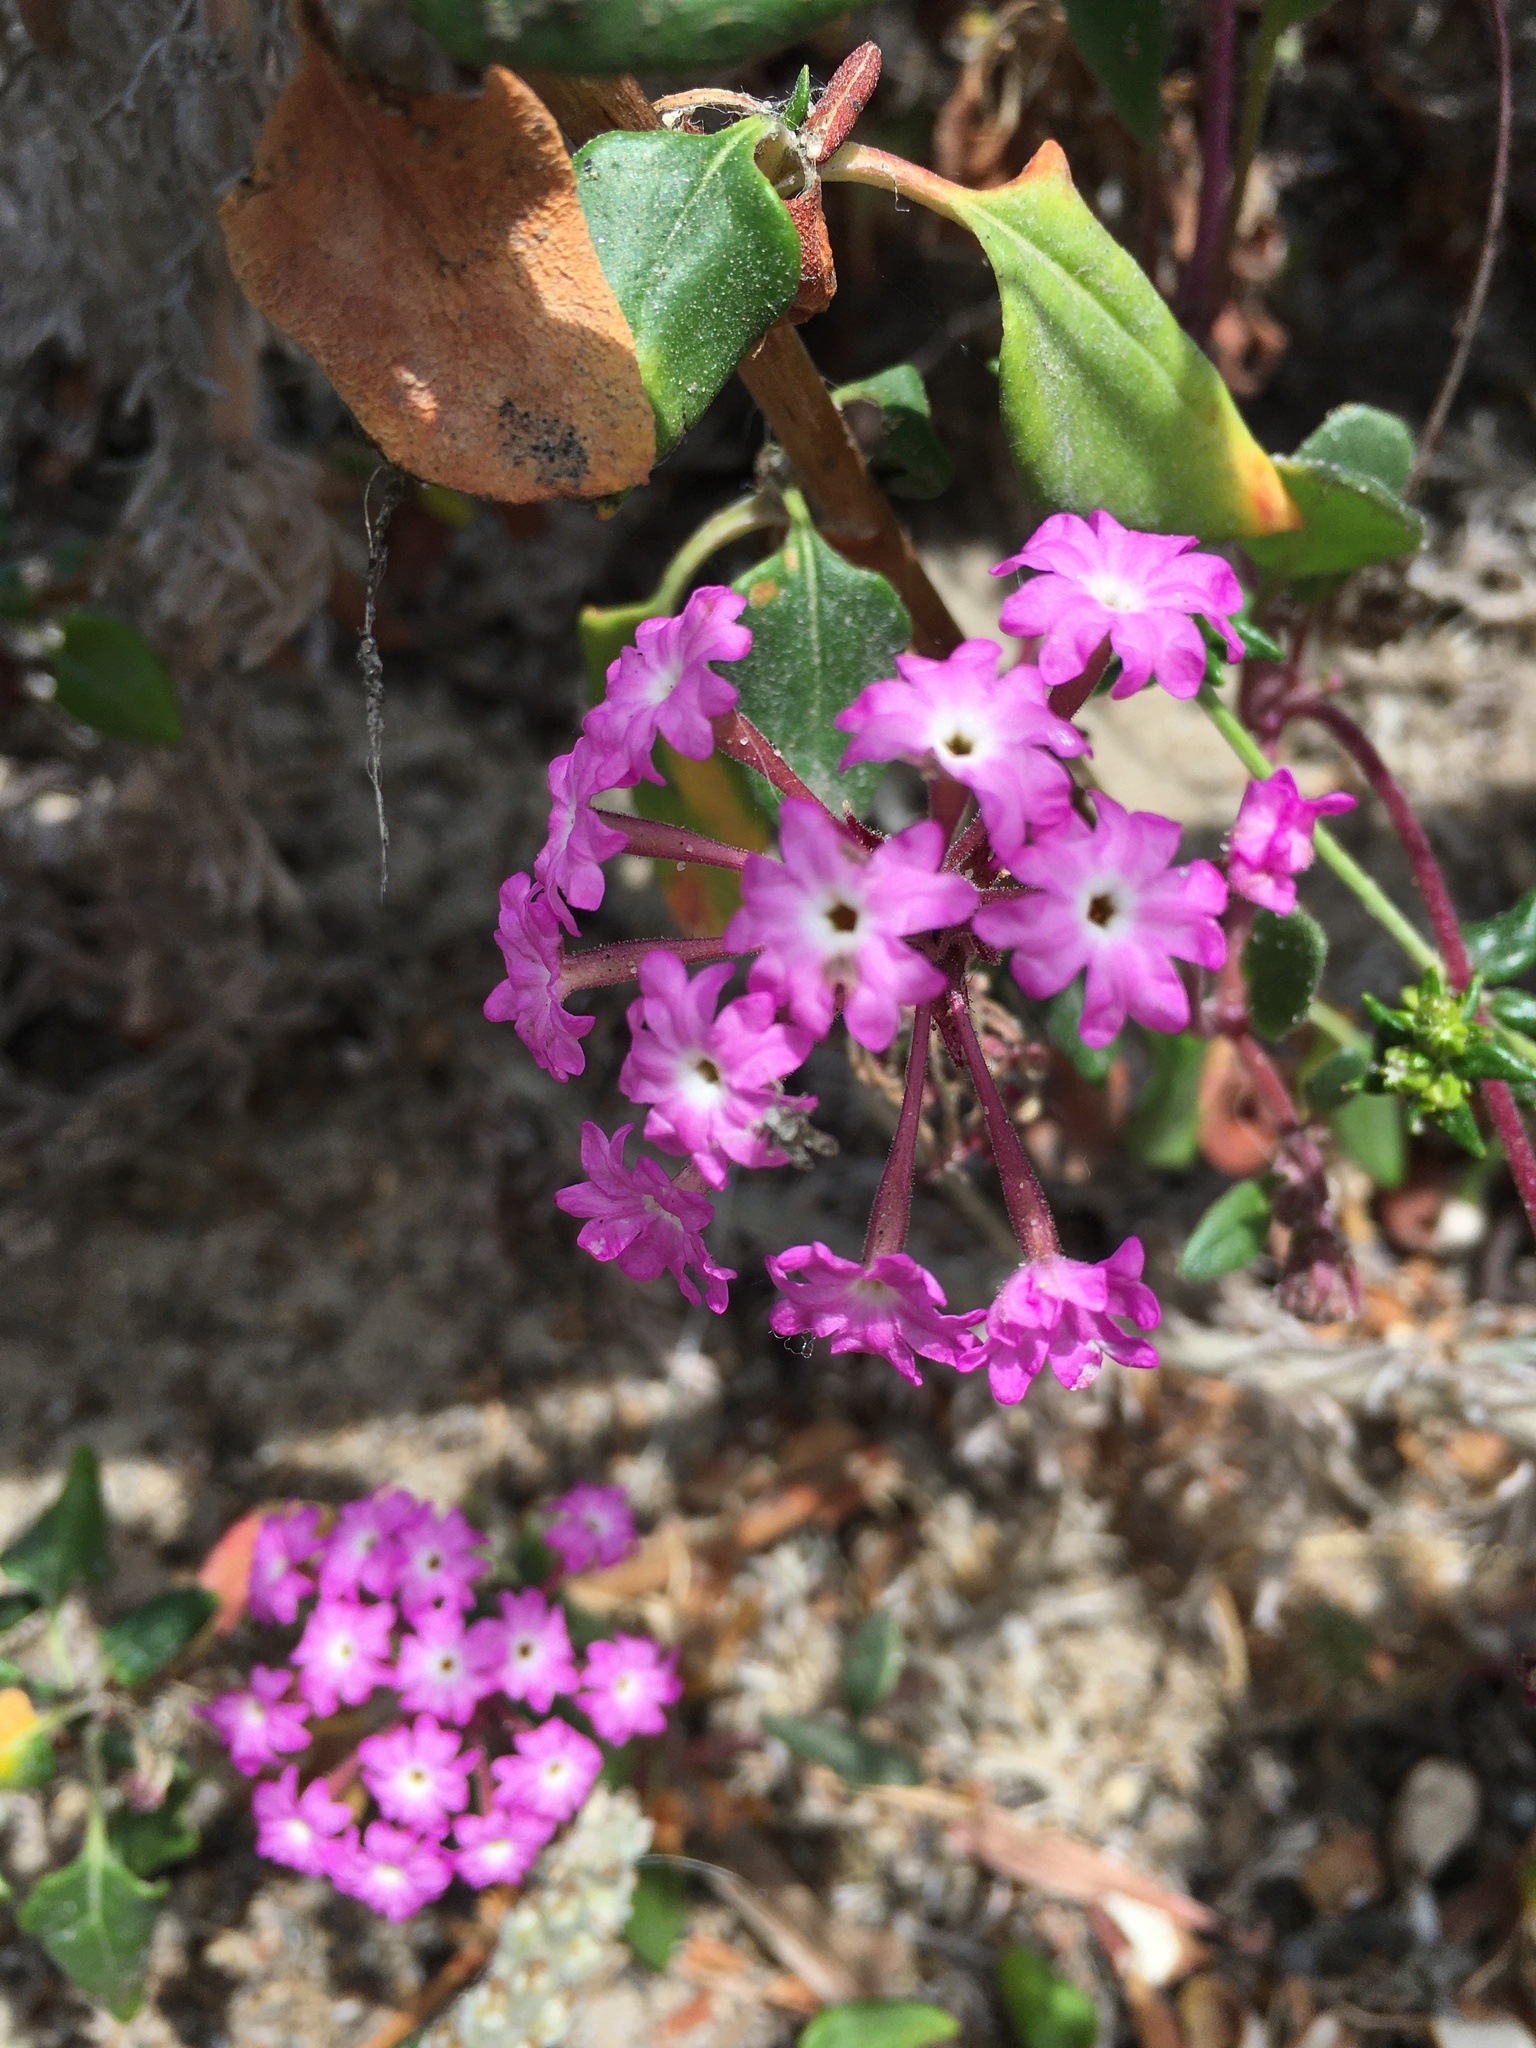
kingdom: Plantae
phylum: Tracheophyta
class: Magnoliopsida
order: Caryophyllales
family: Nyctaginaceae
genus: Abronia
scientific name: Abronia umbellata
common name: Sand-verbena
